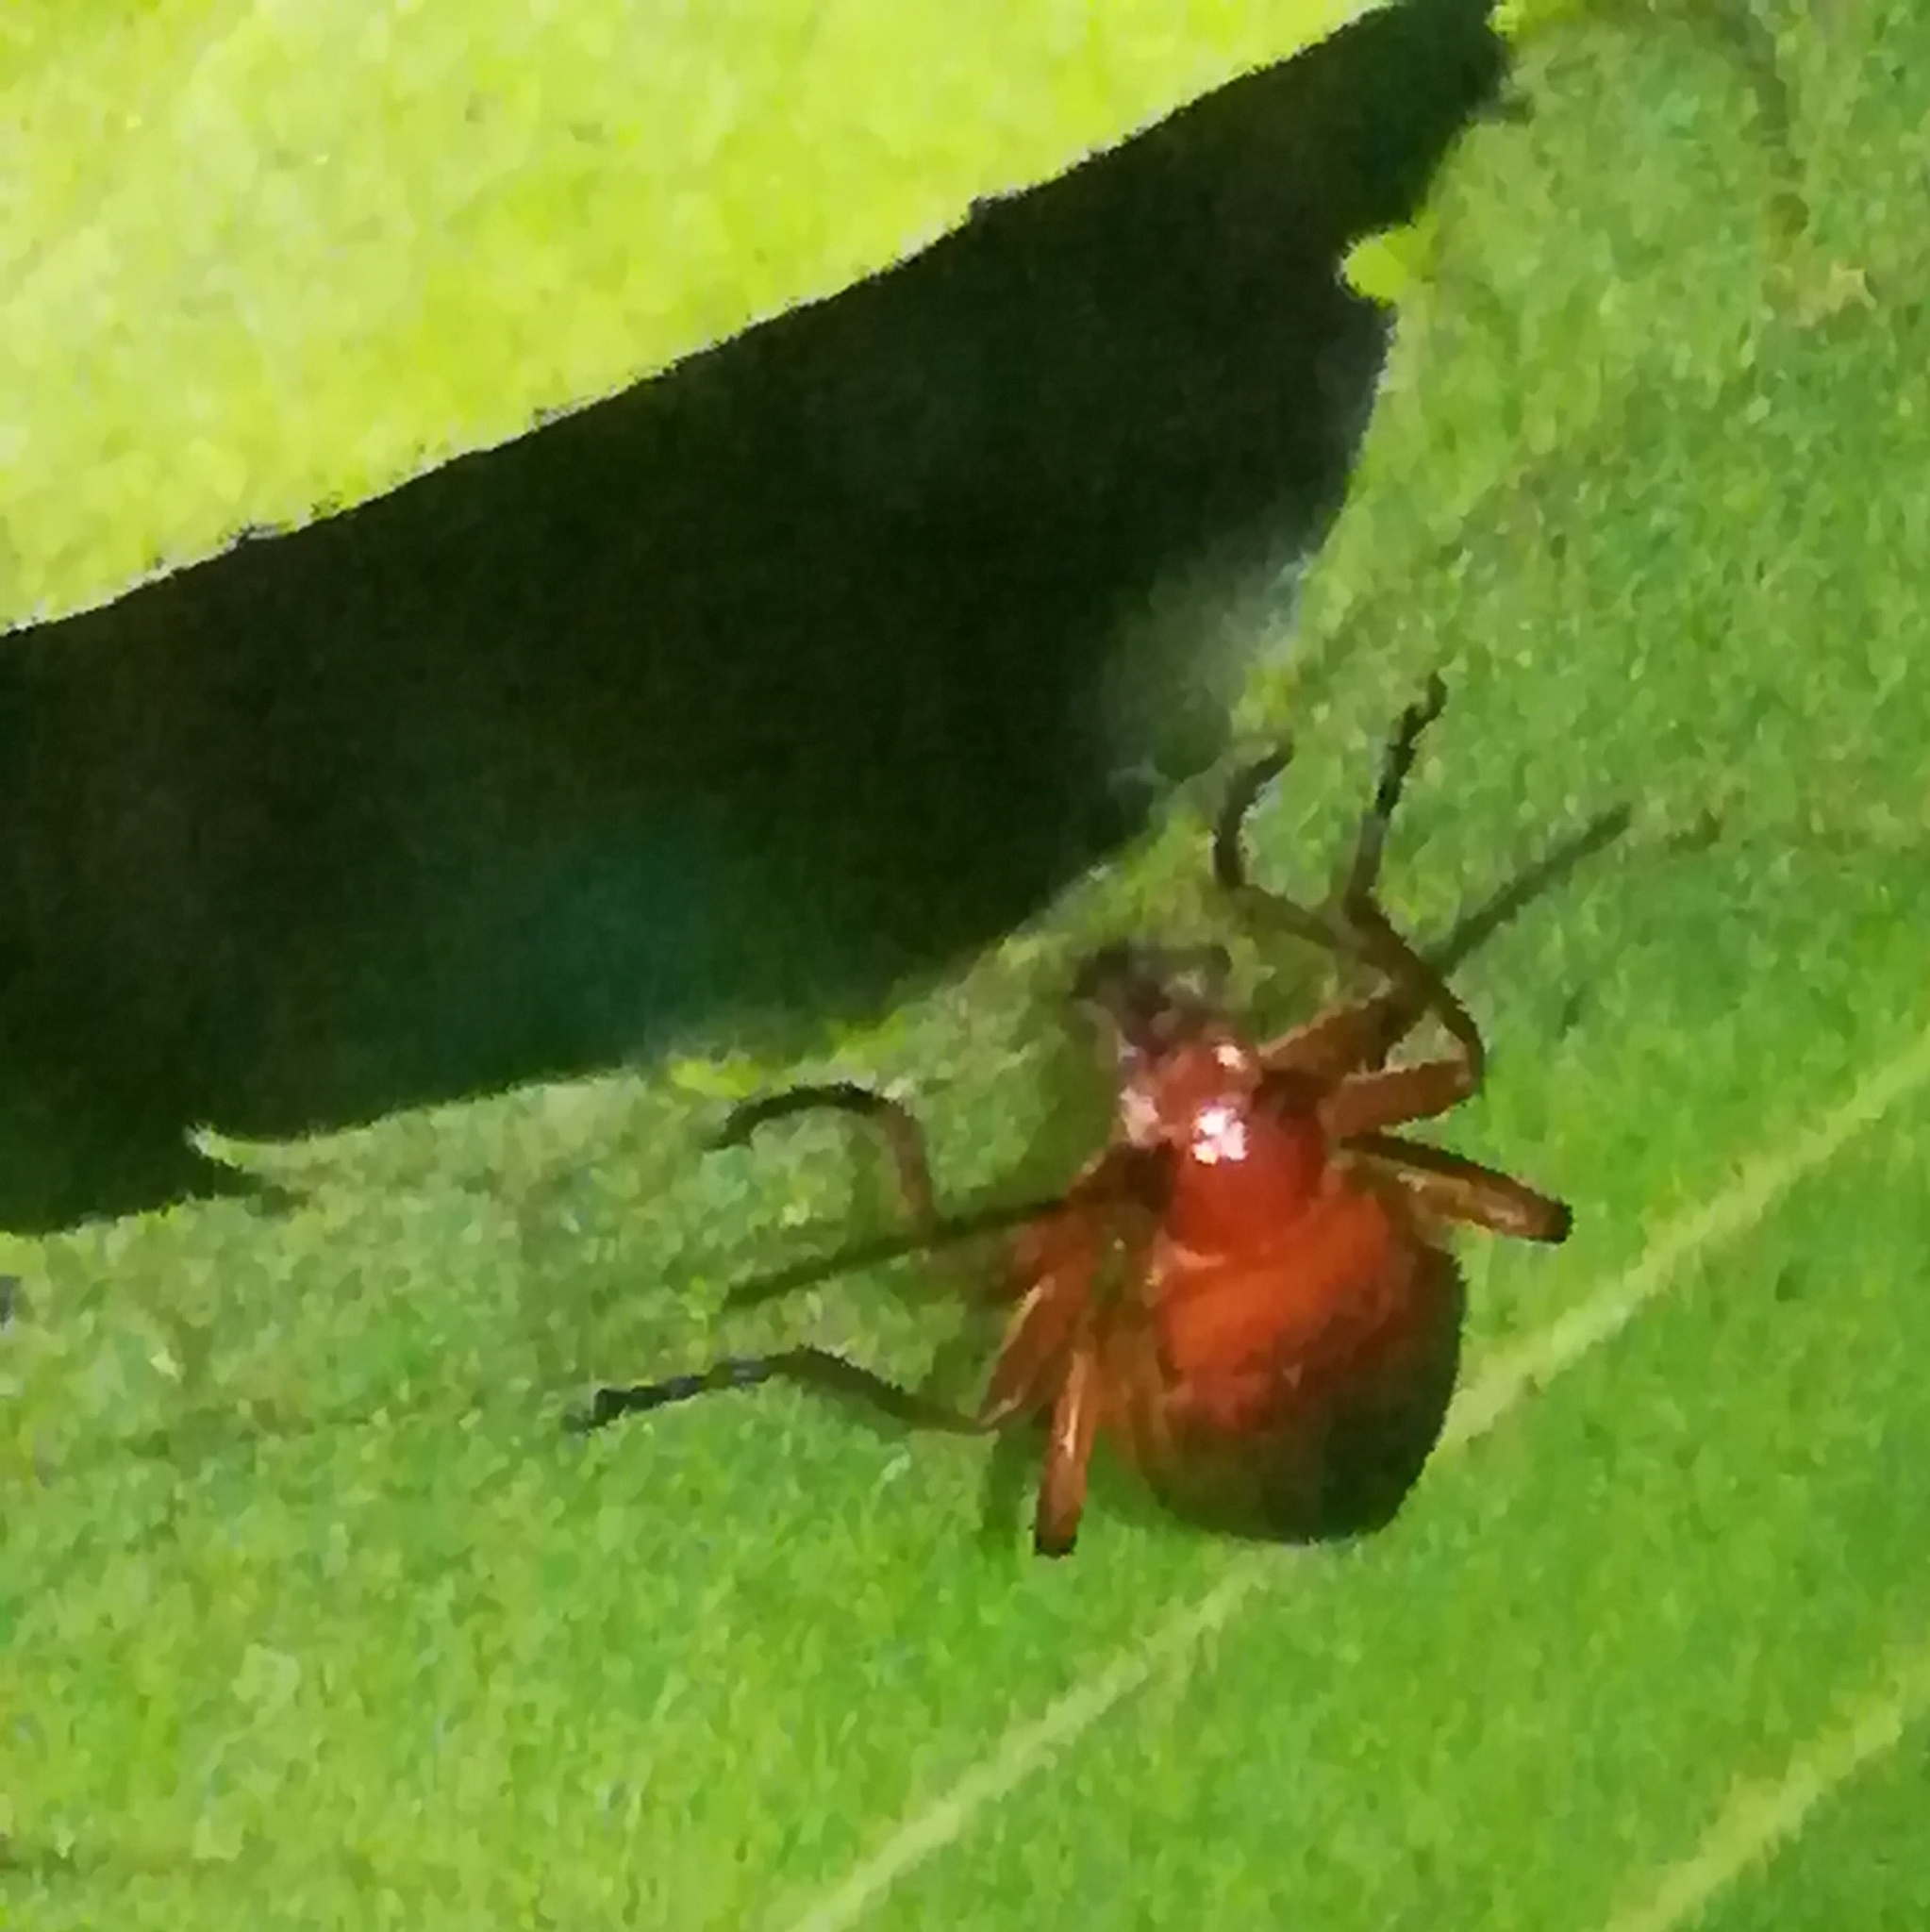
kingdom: Animalia
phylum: Arthropoda
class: Insecta
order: Coleoptera
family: Cantharidae
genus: Rhagonycha
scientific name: Rhagonycha fulva
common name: Common red soldier beetle
